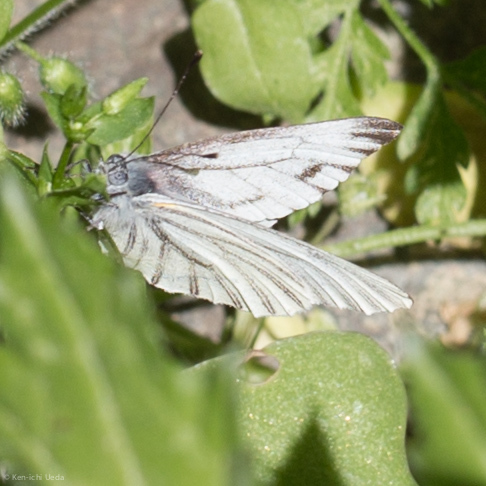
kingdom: Animalia
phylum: Arthropoda
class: Insecta
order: Lepidoptera
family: Pieridae
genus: Pieris
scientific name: Pieris marginalis
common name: Margined white
